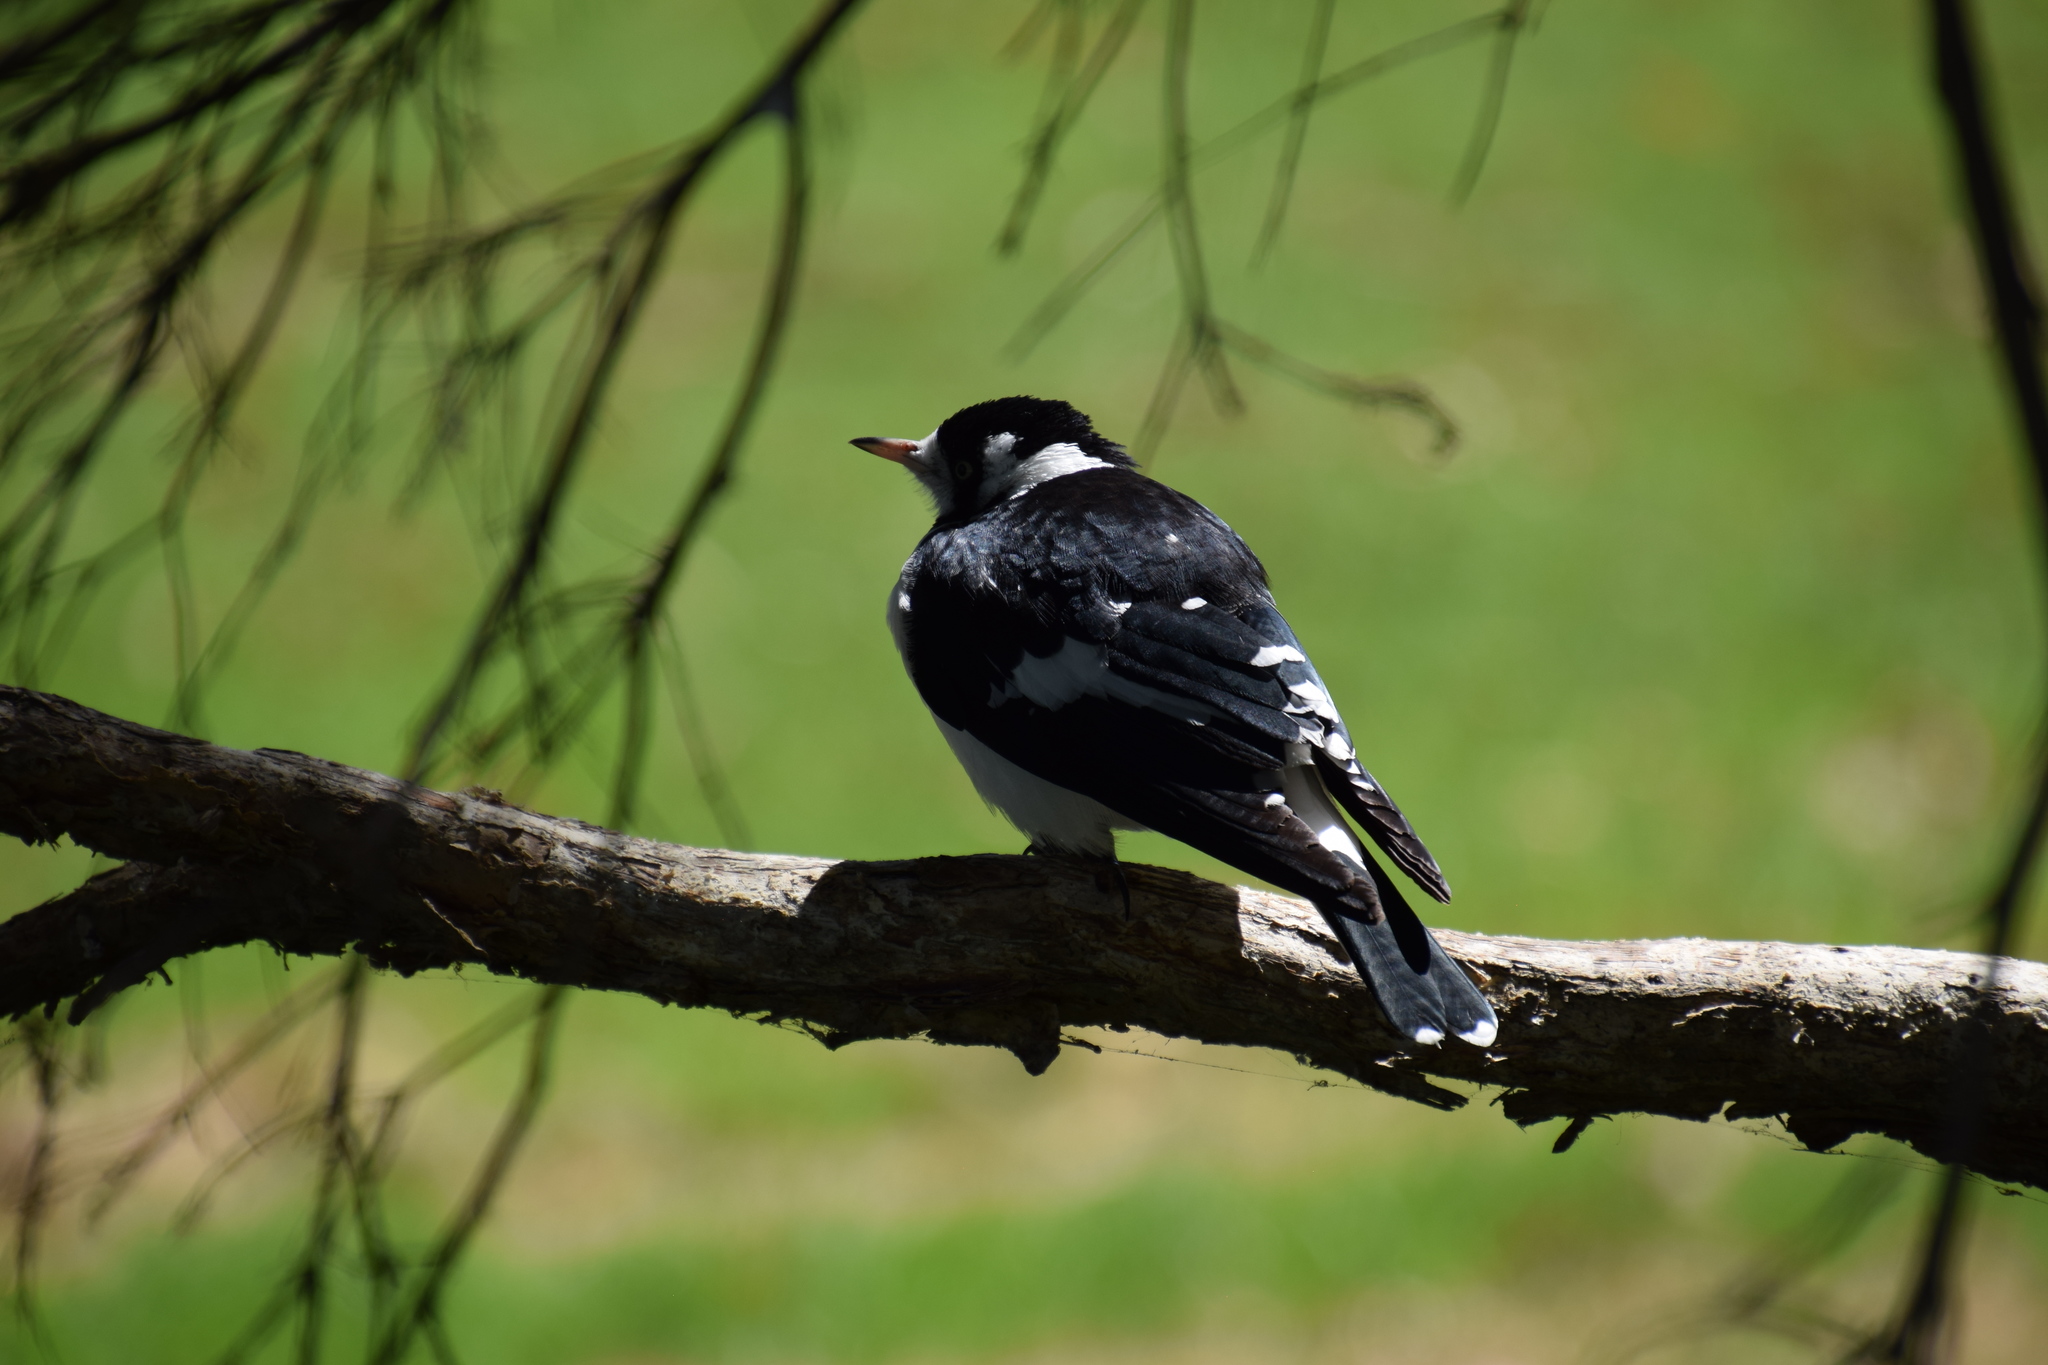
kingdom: Animalia
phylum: Chordata
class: Aves
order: Passeriformes
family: Monarchidae
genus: Grallina
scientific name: Grallina cyanoleuca
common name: Magpie-lark
